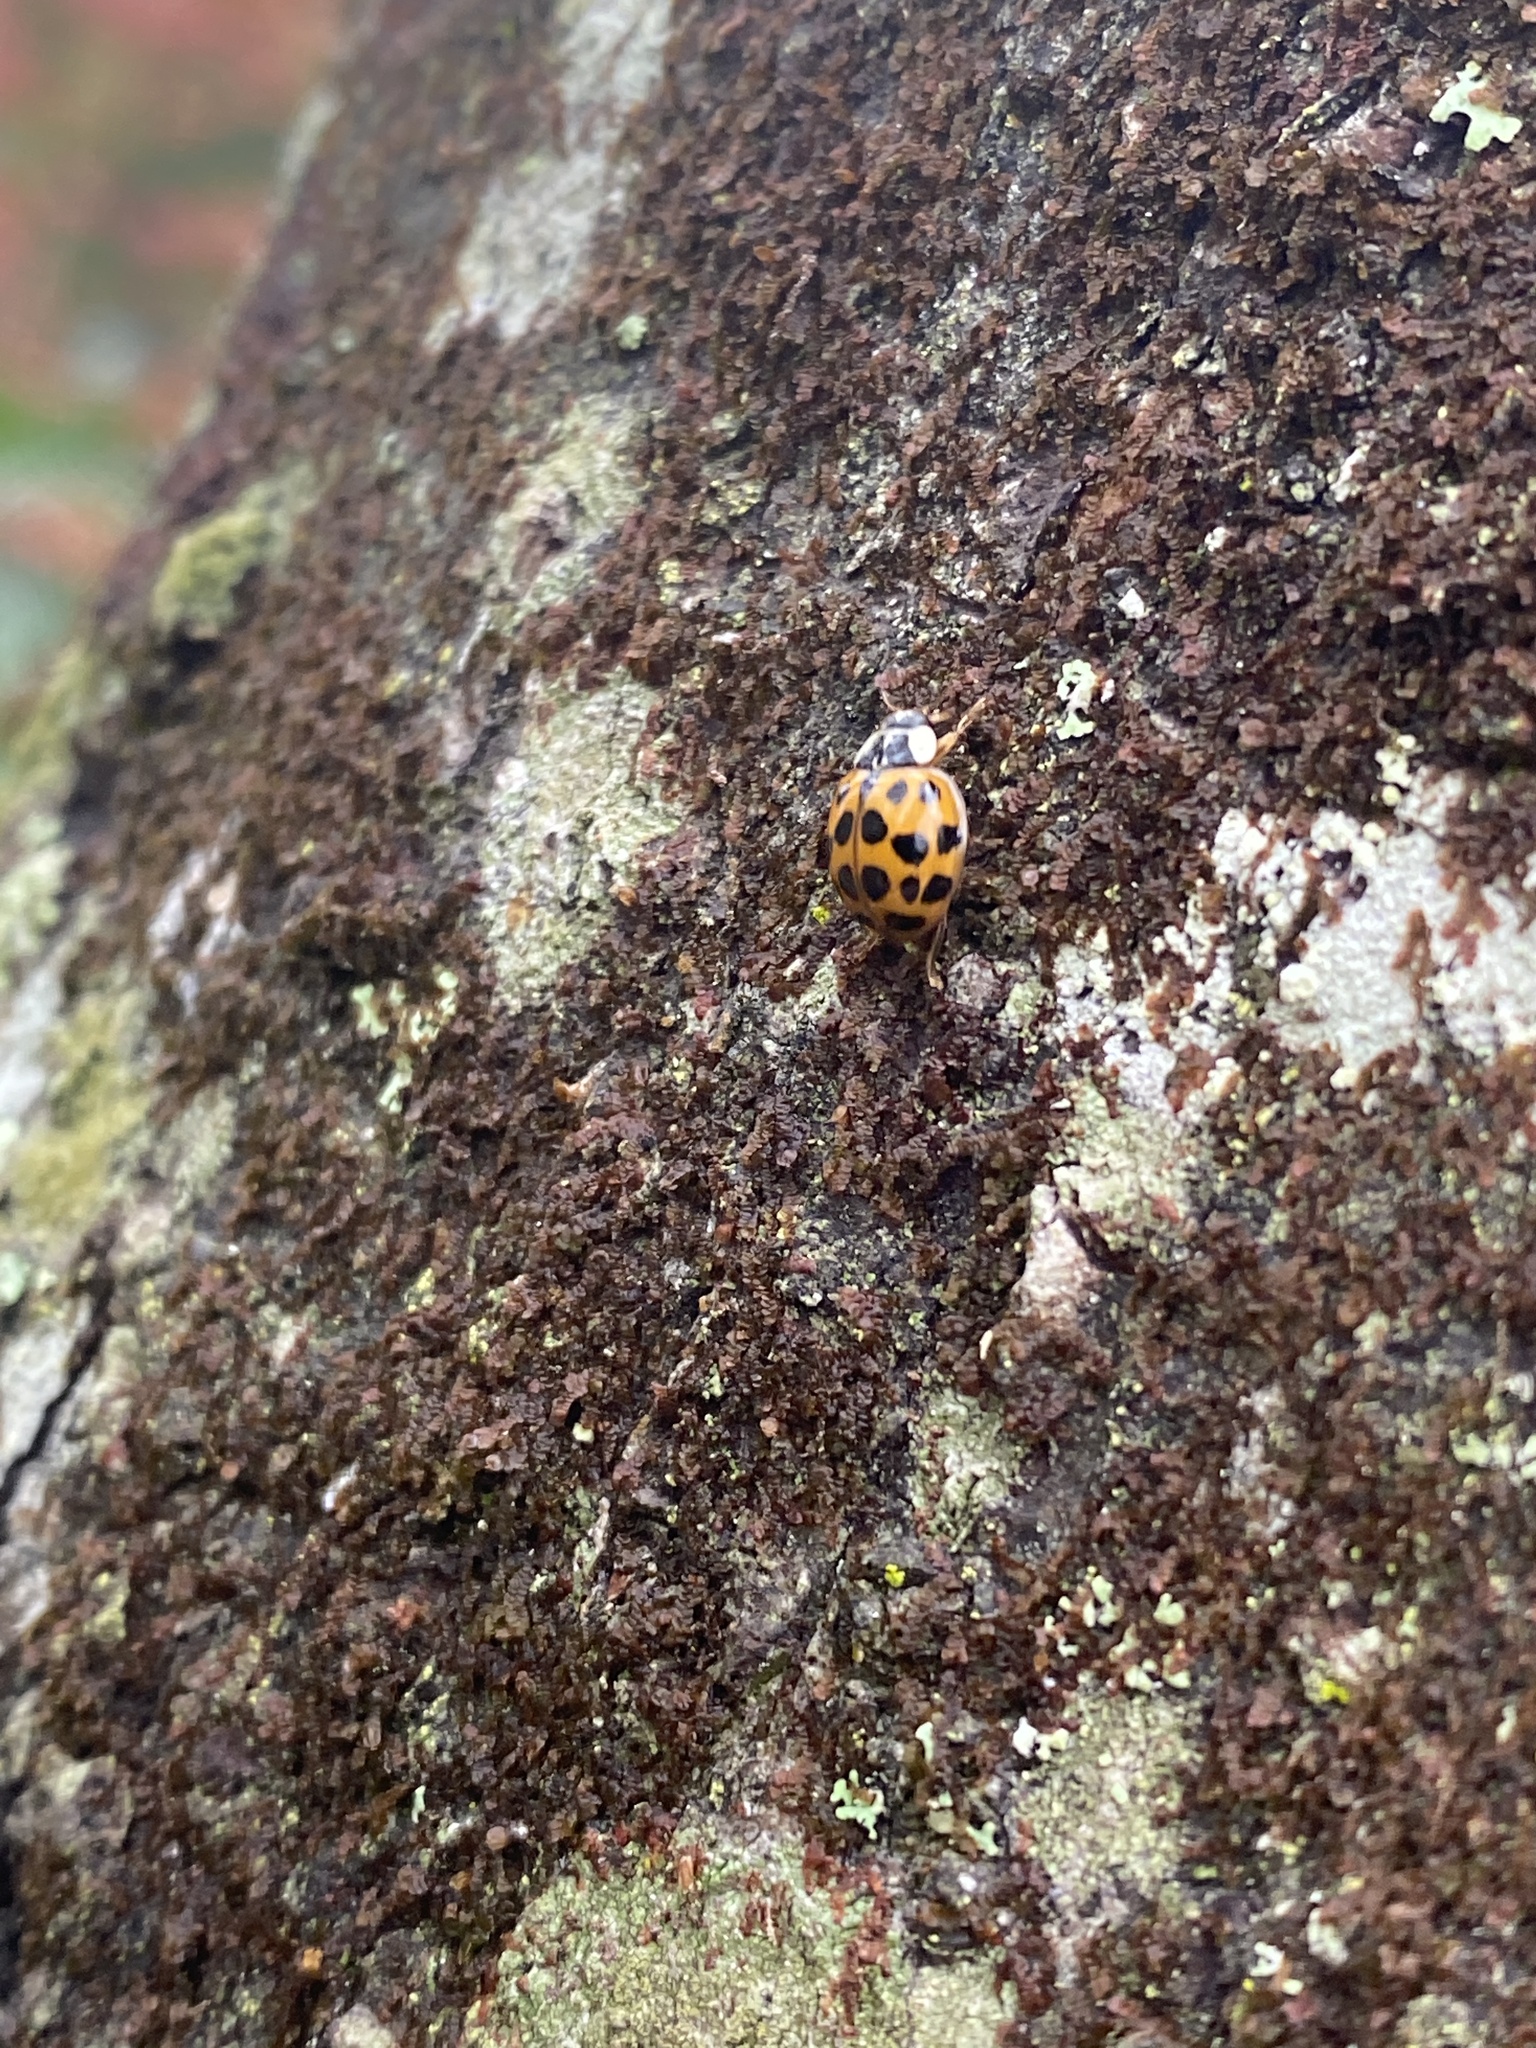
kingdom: Animalia
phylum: Arthropoda
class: Insecta
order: Coleoptera
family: Coccinellidae
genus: Harmonia
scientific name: Harmonia axyridis
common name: Harlequin ladybird
